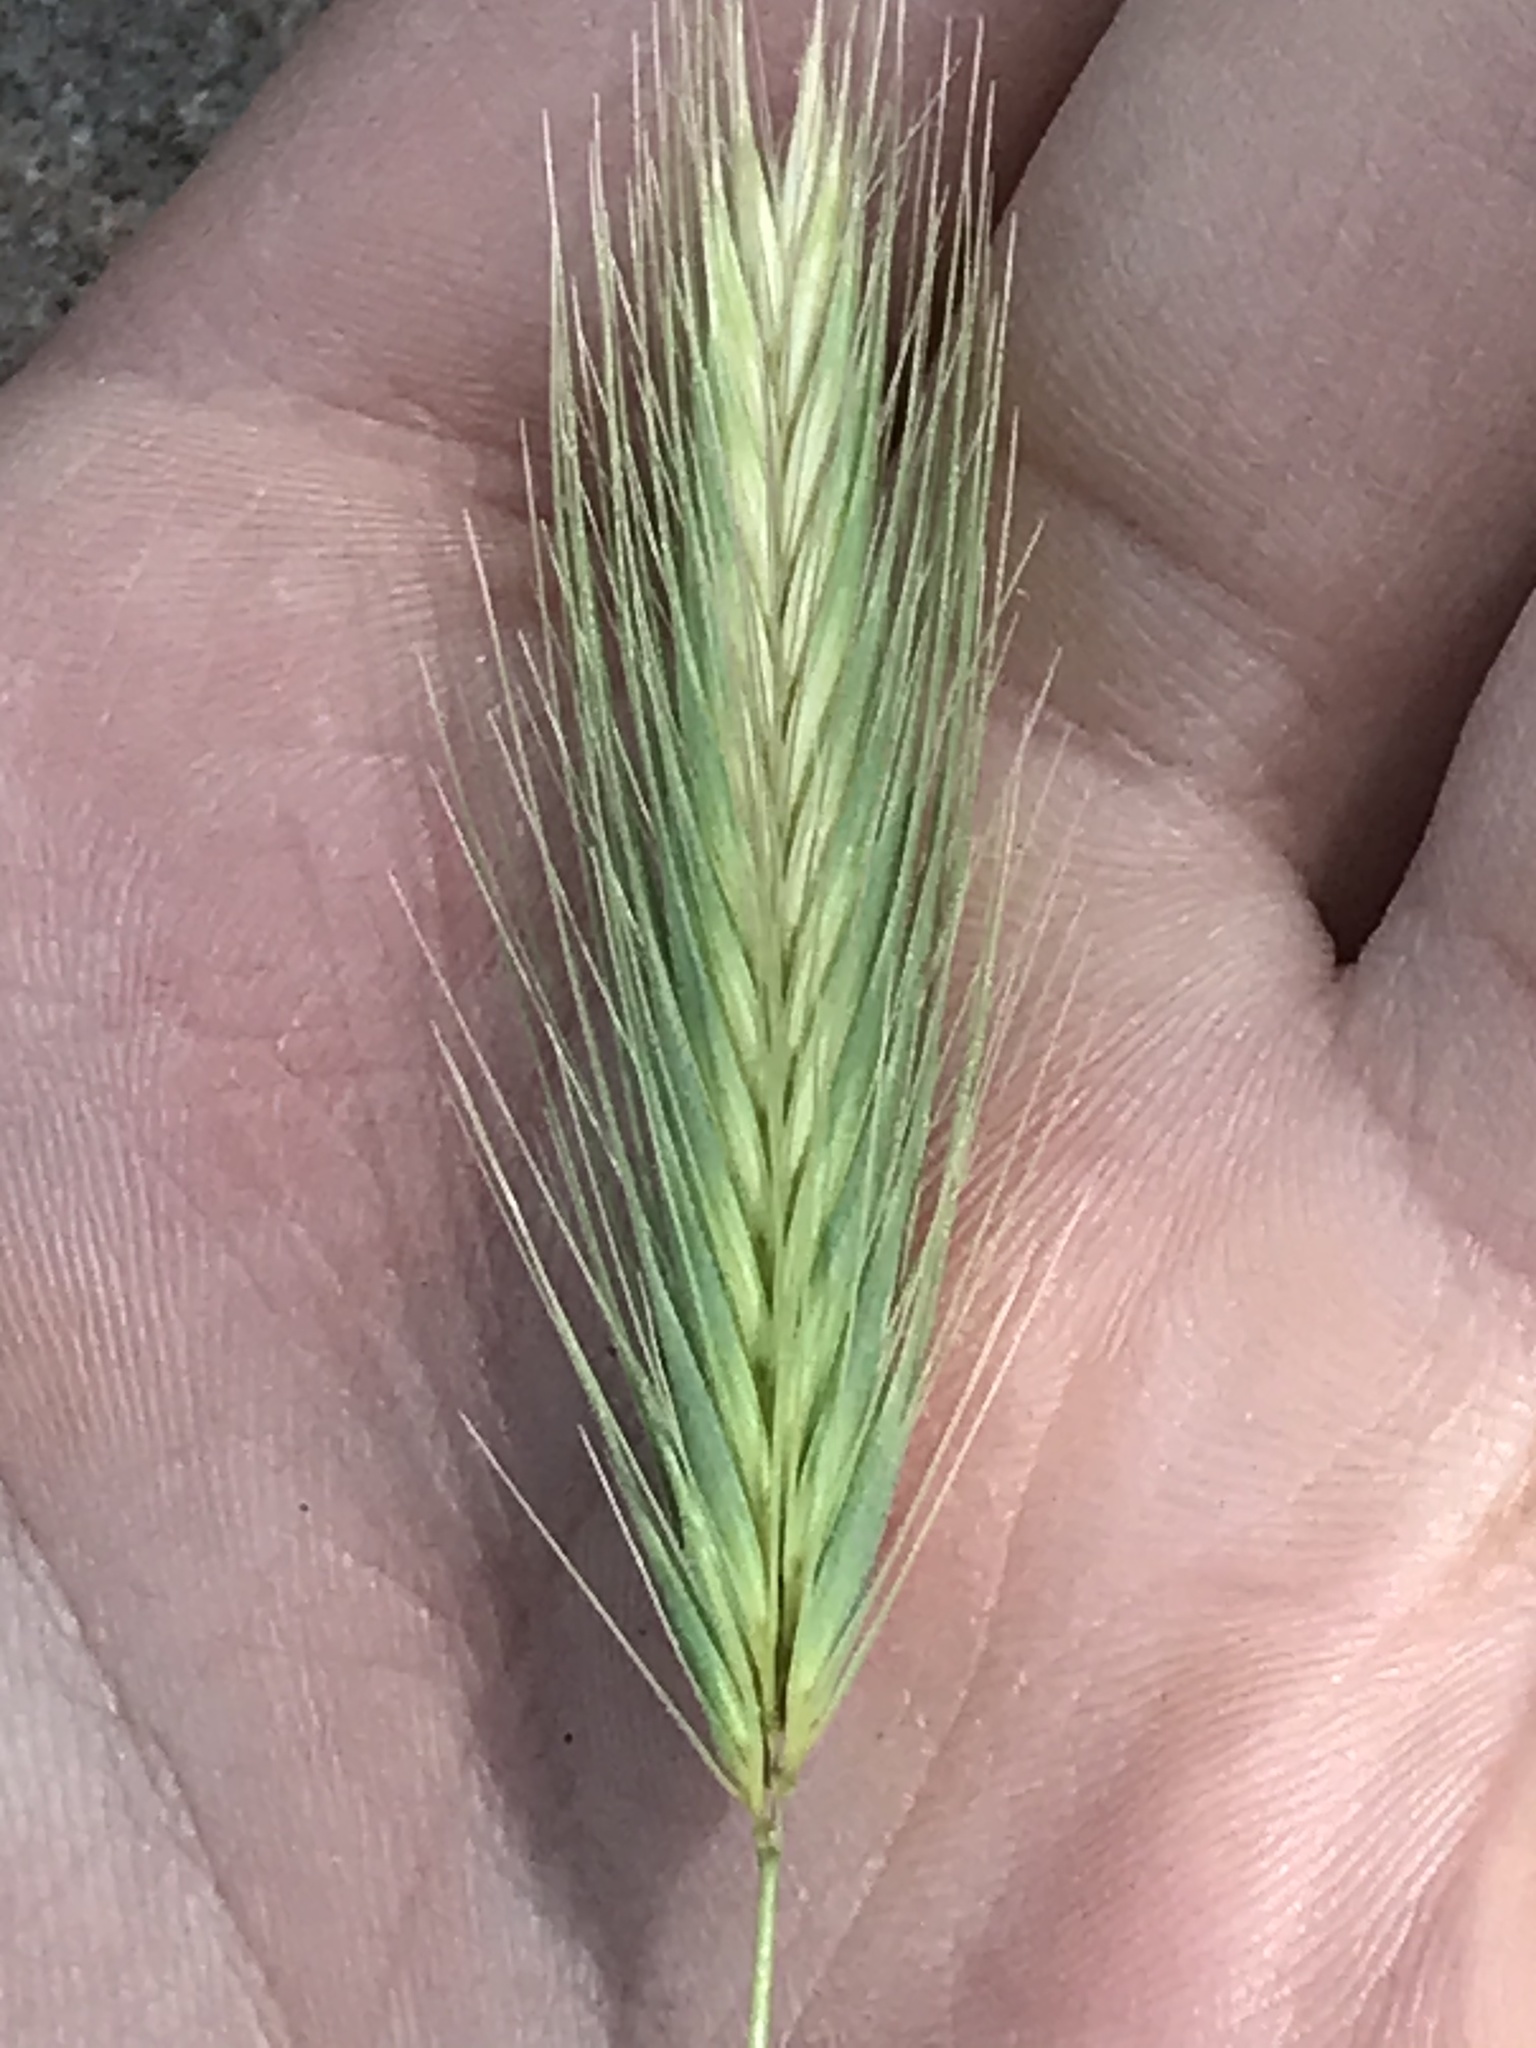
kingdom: Plantae
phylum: Tracheophyta
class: Liliopsida
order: Poales
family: Poaceae
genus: Hordeum
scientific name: Hordeum murinum
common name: Wall barley
